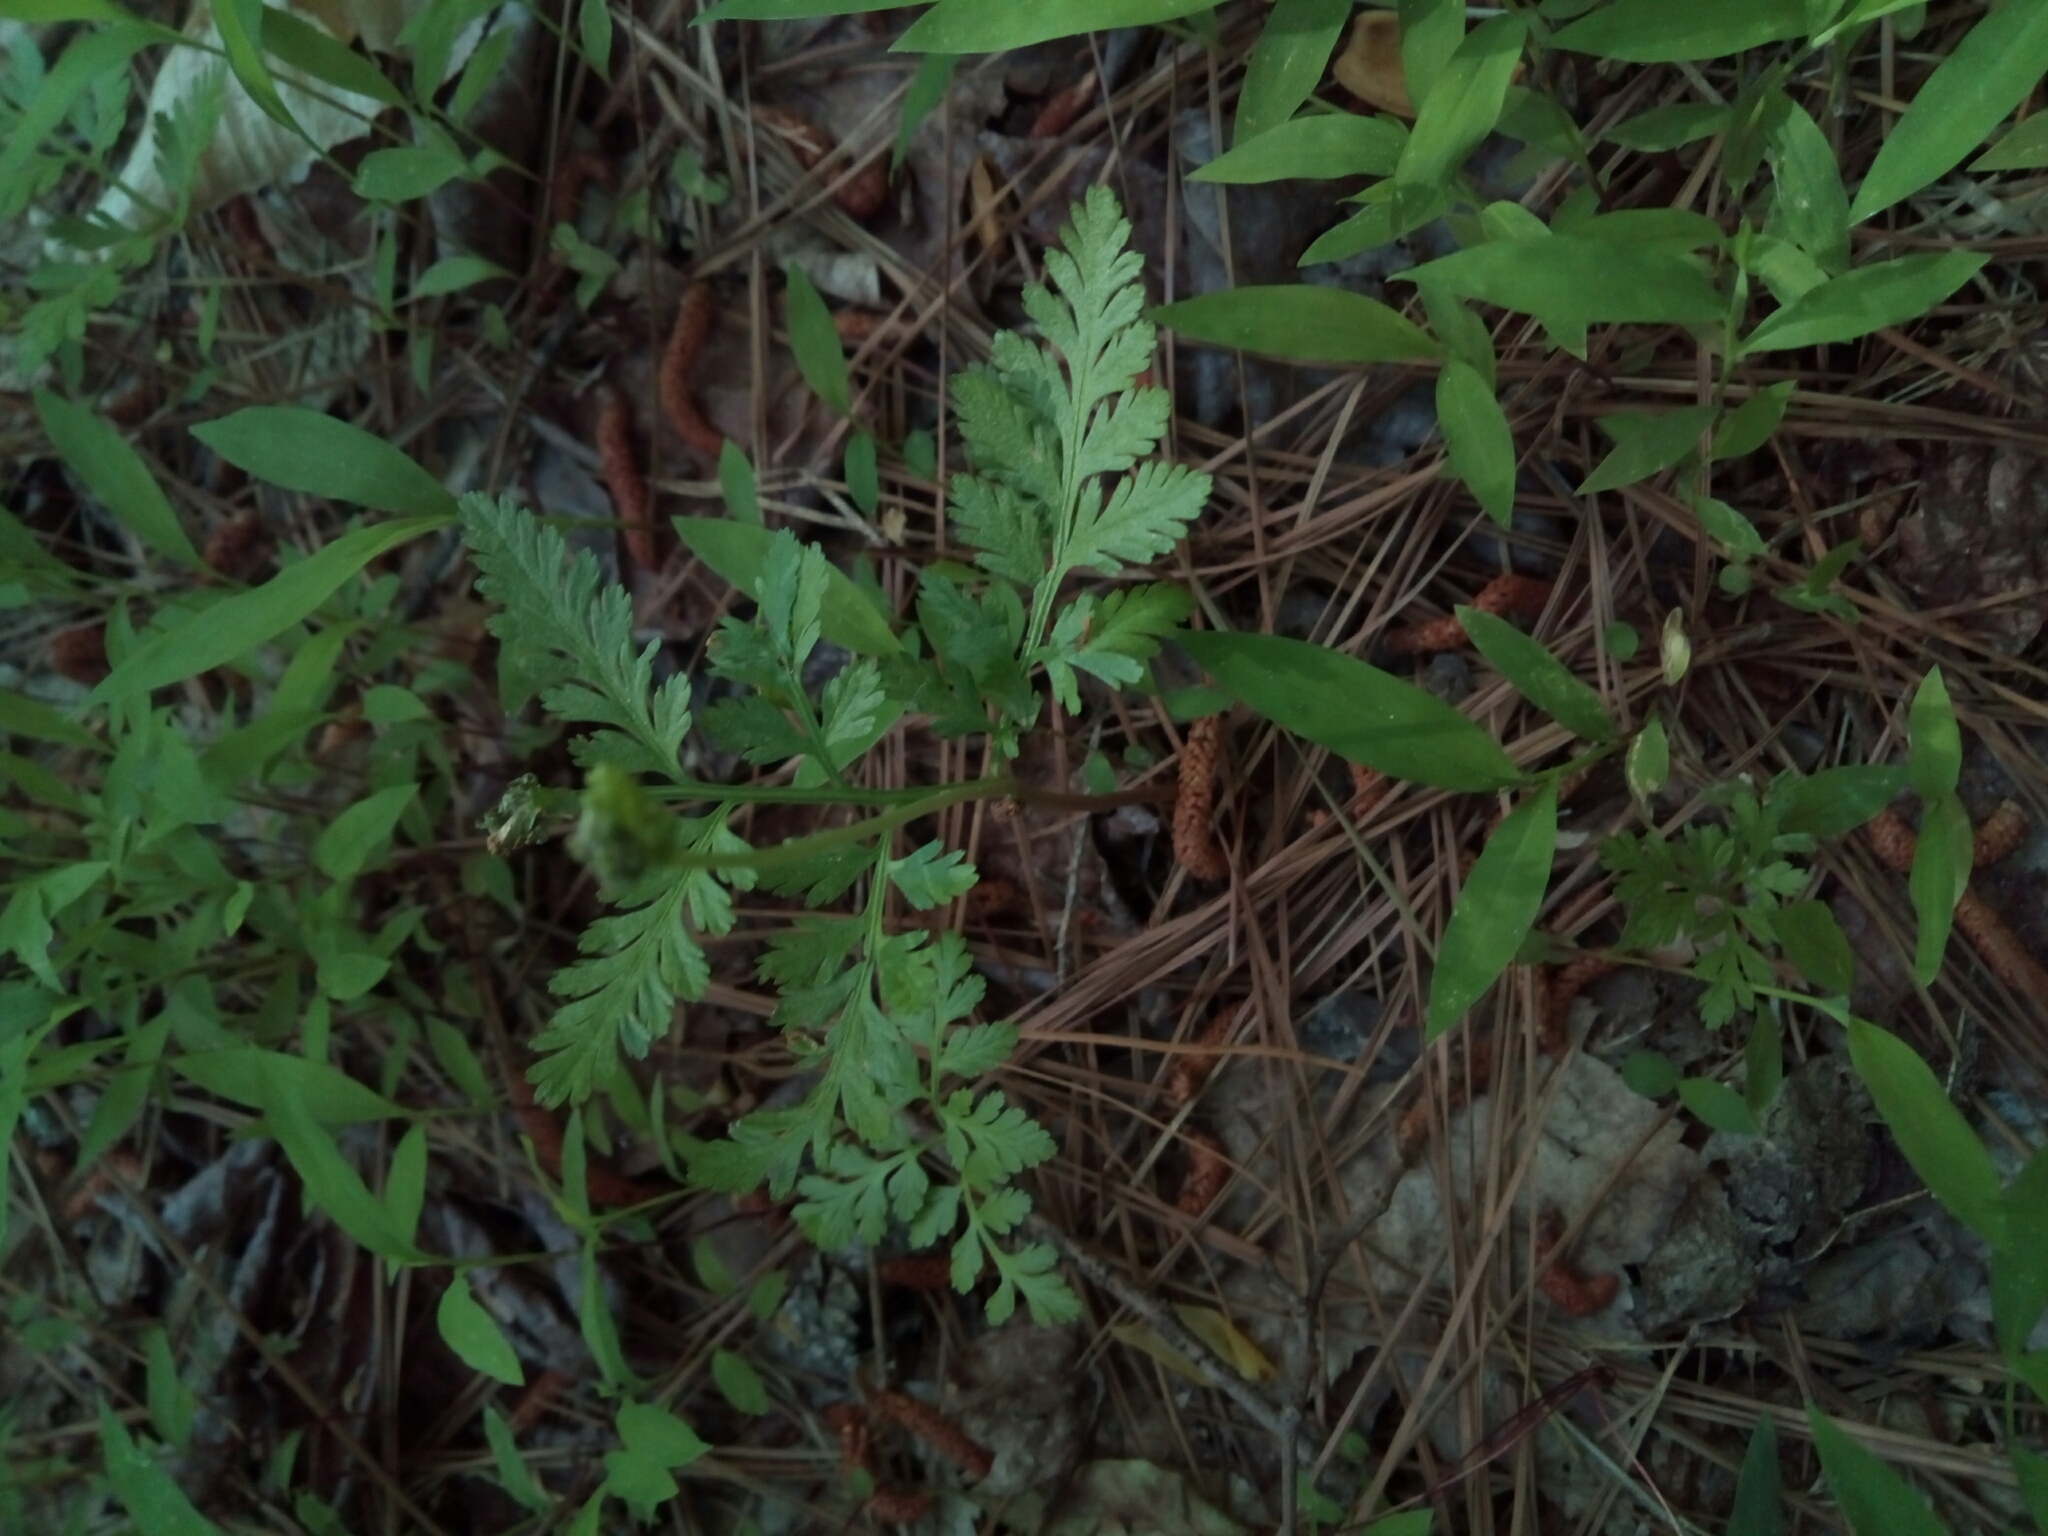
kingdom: Plantae
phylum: Tracheophyta
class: Polypodiopsida
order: Ophioglossales
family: Ophioglossaceae
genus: Botrypus
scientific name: Botrypus virginianus
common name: Common grapefern
